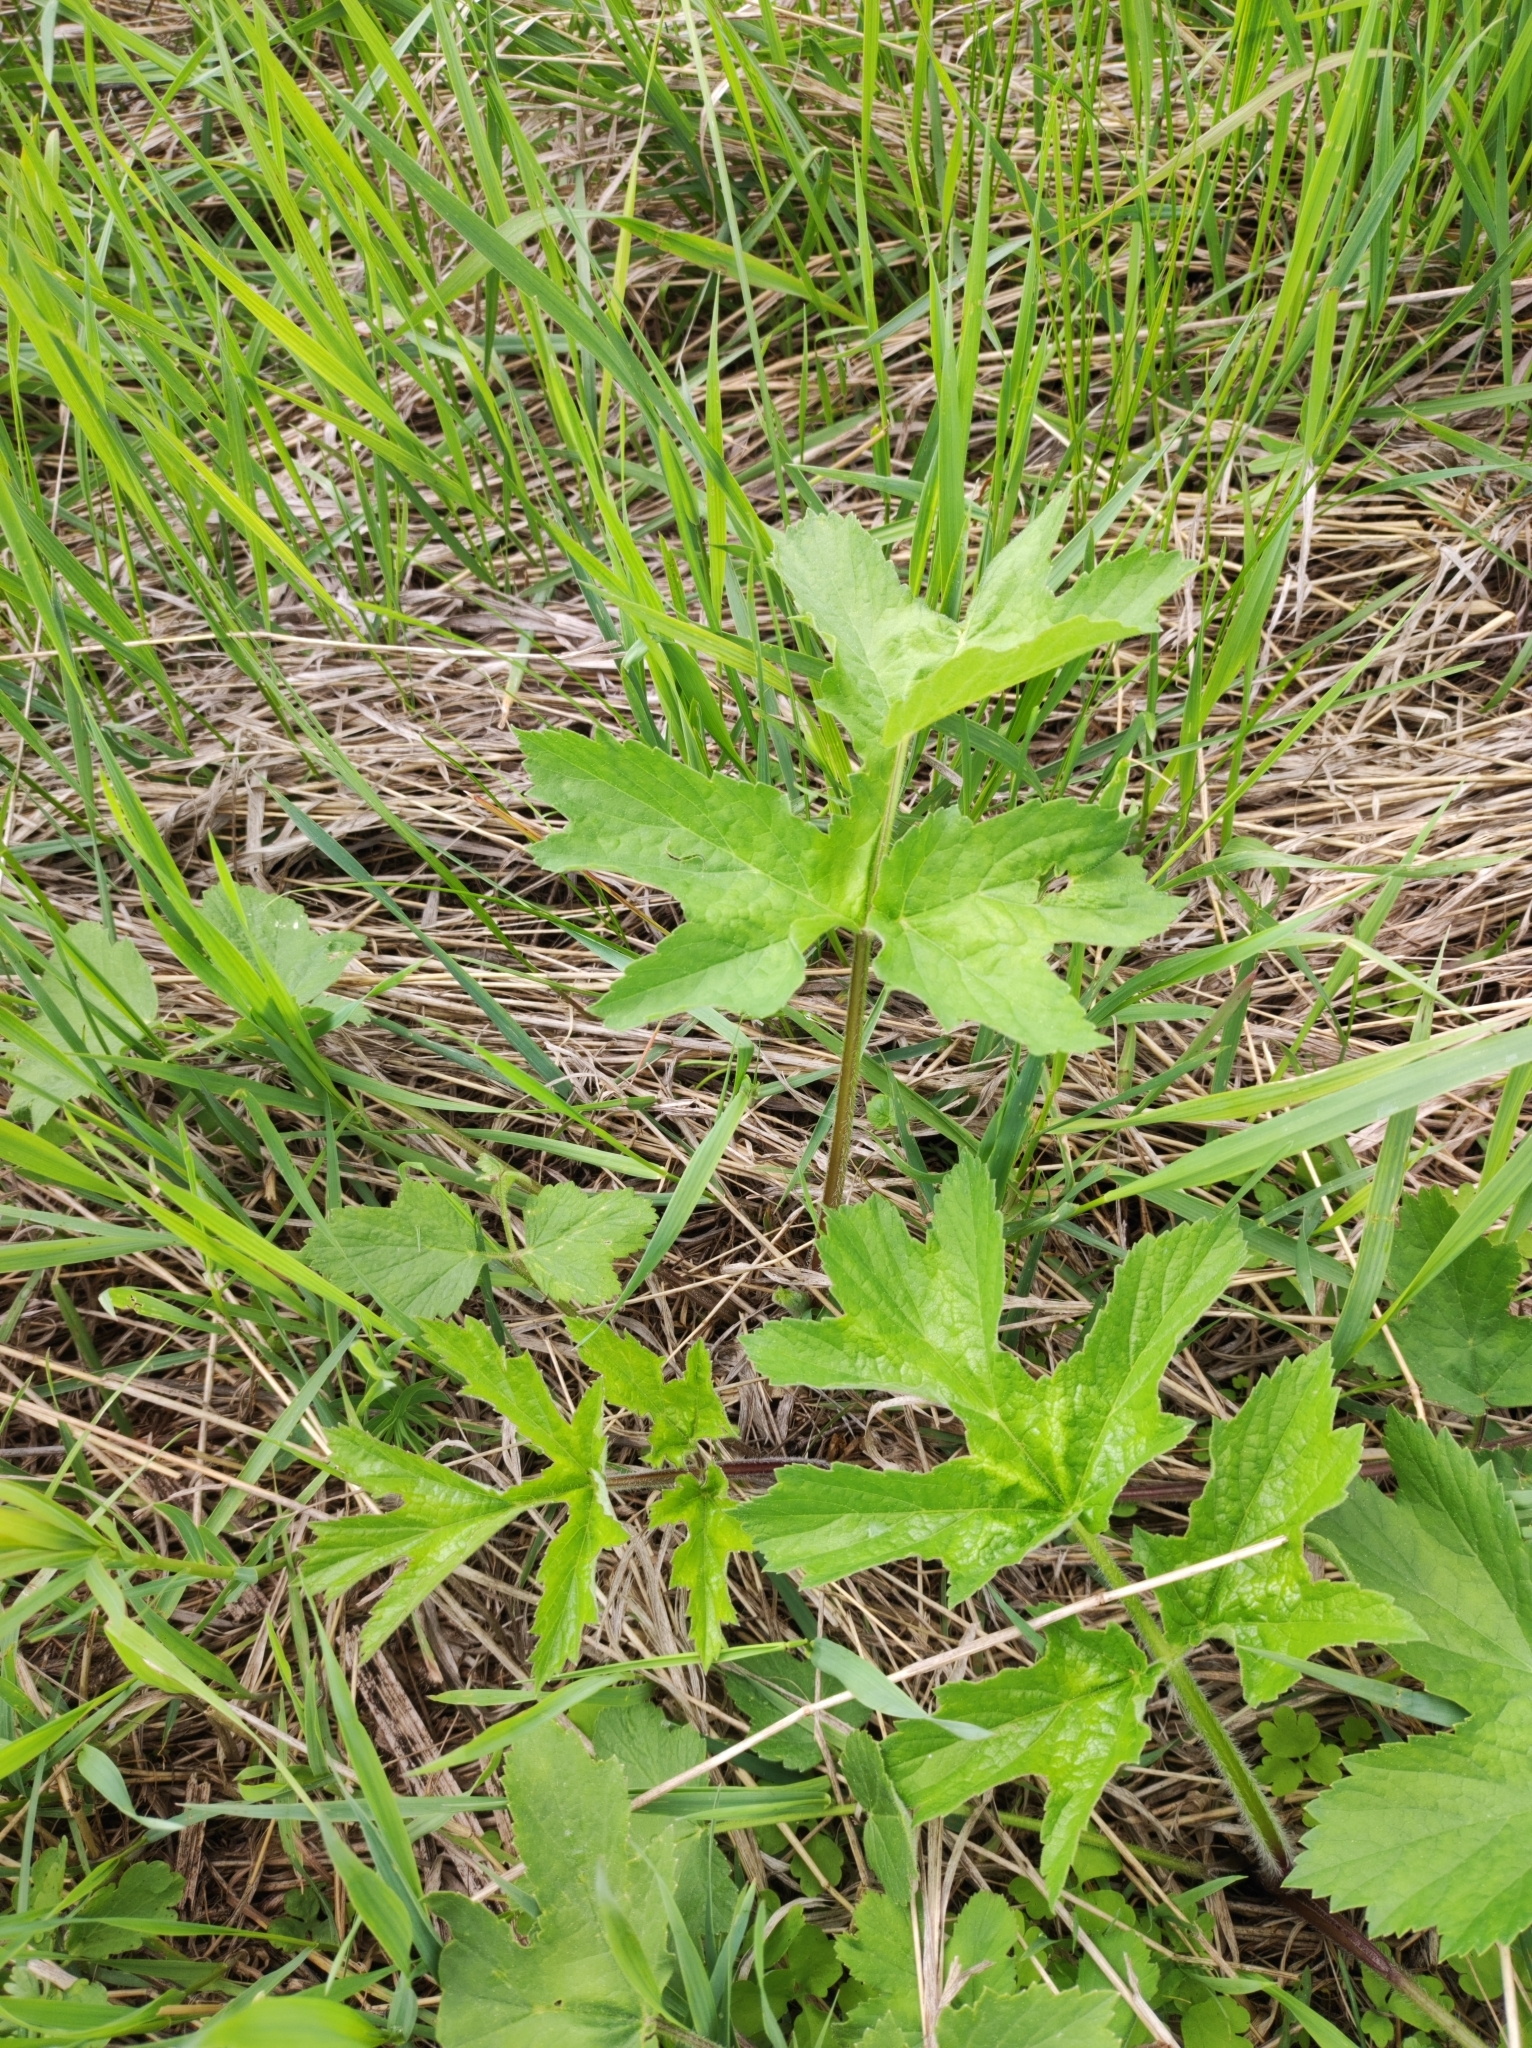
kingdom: Plantae
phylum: Tracheophyta
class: Magnoliopsida
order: Apiales
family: Apiaceae
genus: Heracleum
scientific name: Heracleum sphondylium
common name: Hogweed
